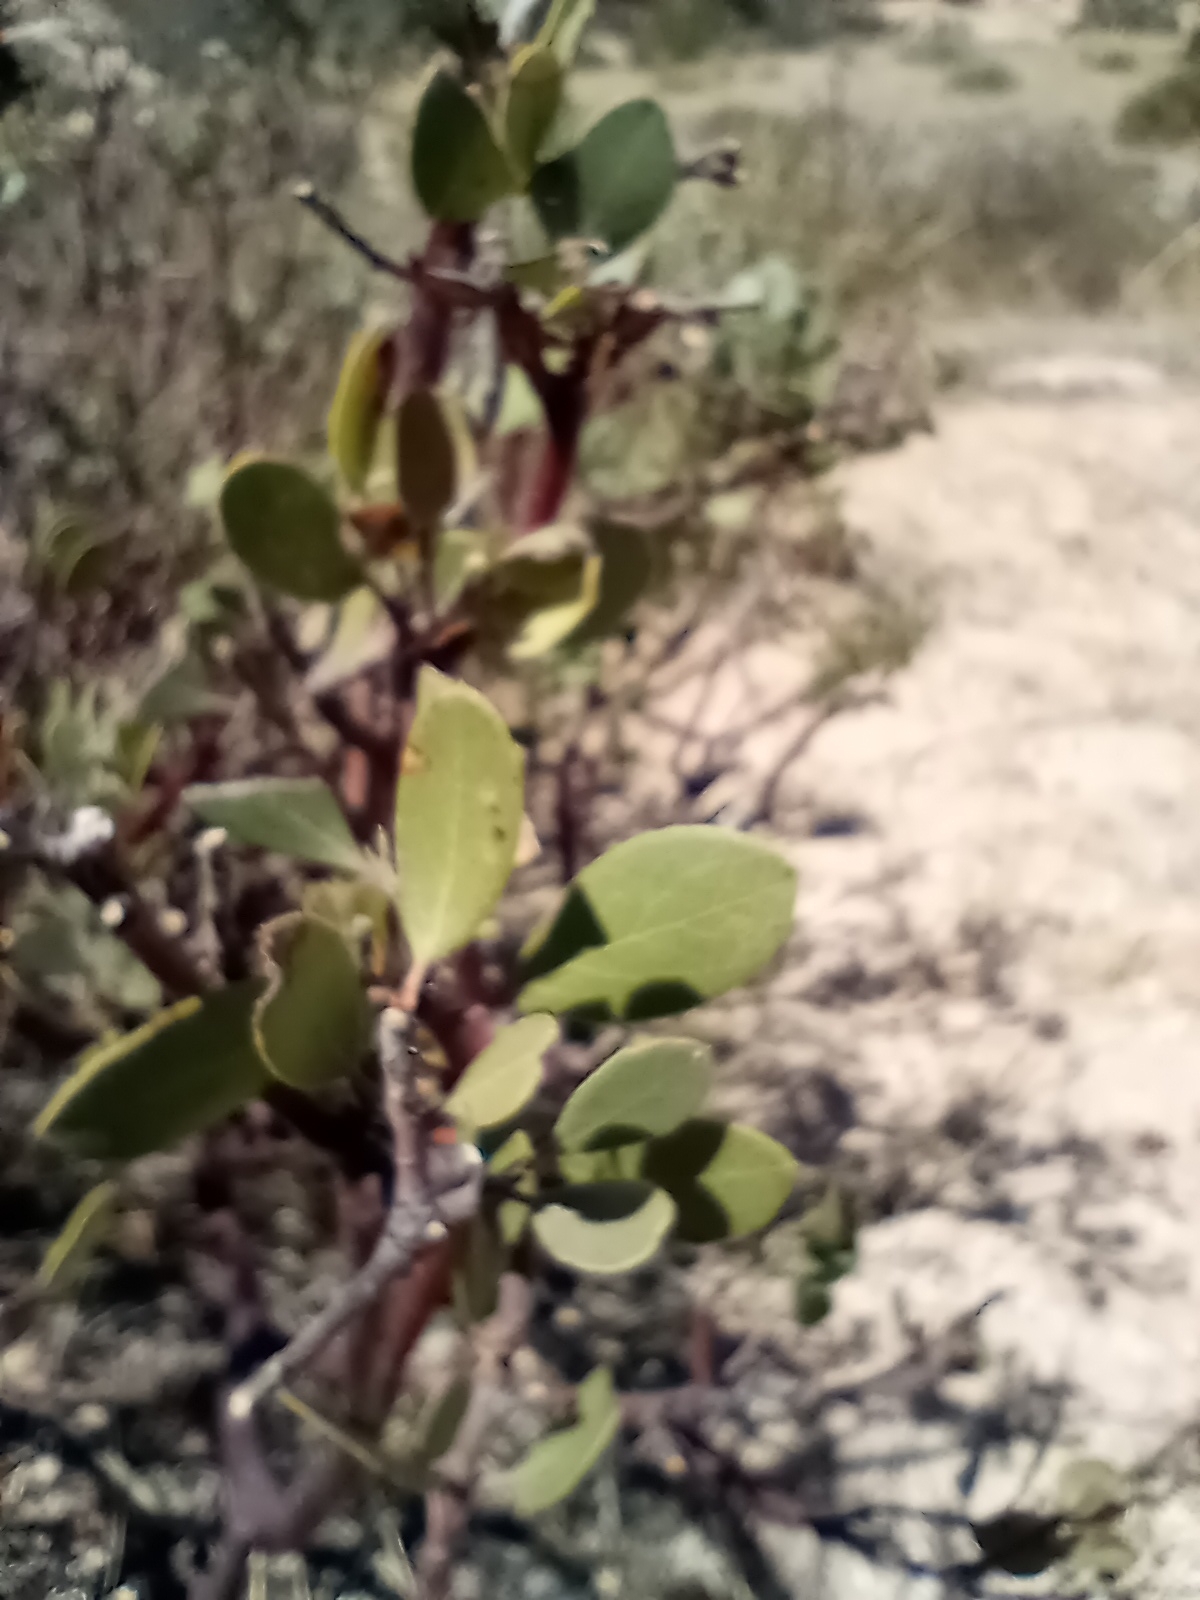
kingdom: Plantae
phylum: Tracheophyta
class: Magnoliopsida
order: Ericales
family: Ericaceae
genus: Arctostaphylos
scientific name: Arctostaphylos pungens
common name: Mexican manzanita
